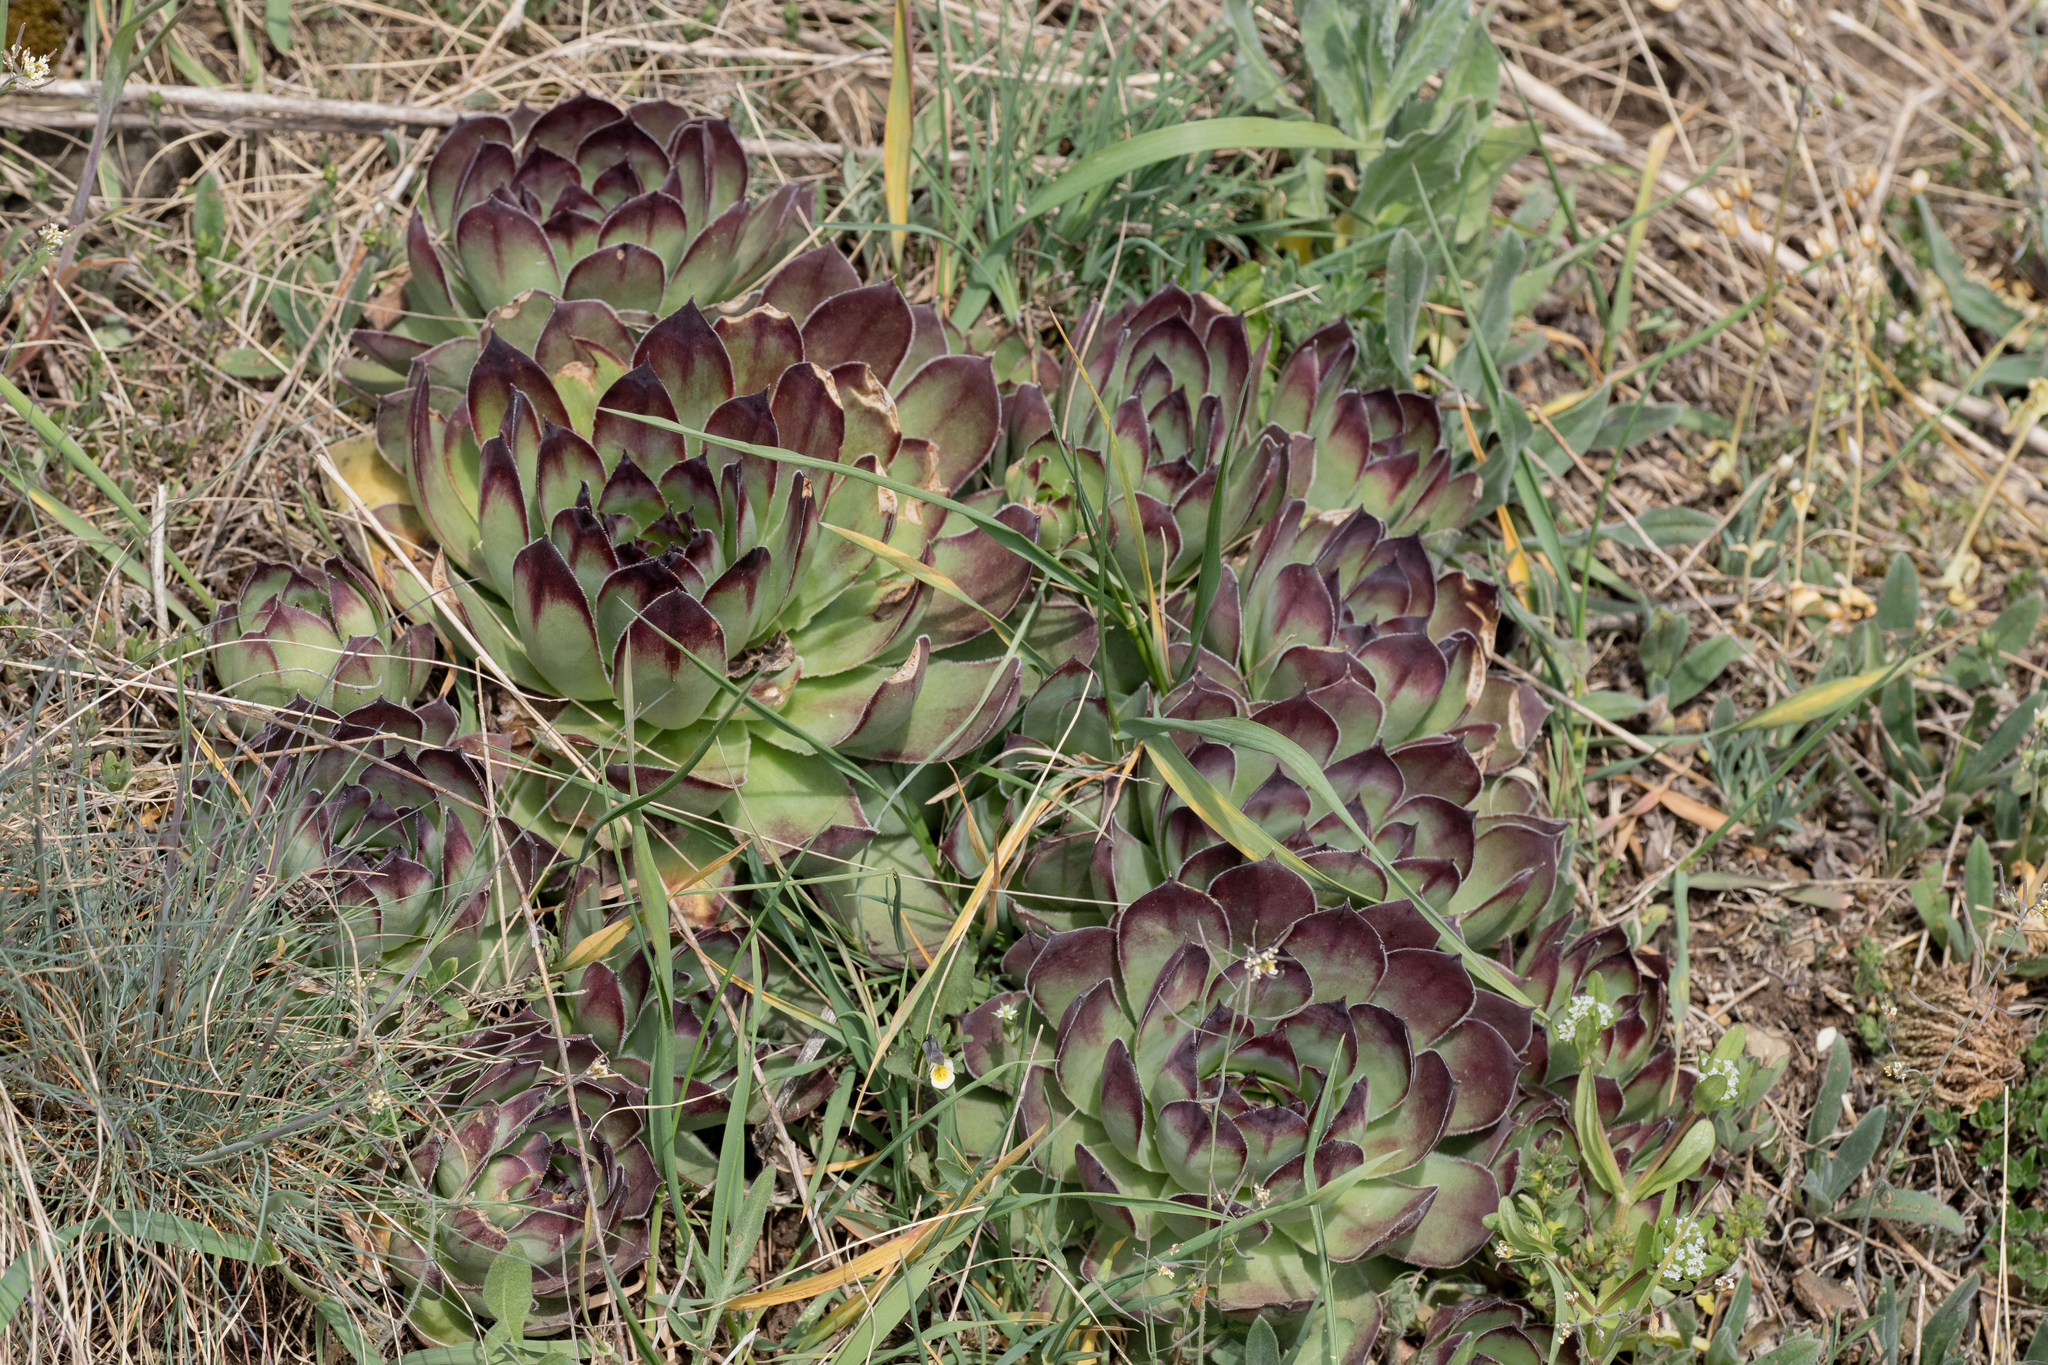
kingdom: Plantae
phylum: Tracheophyta
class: Magnoliopsida
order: Saxifragales
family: Crassulaceae
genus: Sempervivum
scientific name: Sempervivum tectorum
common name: House-leek
